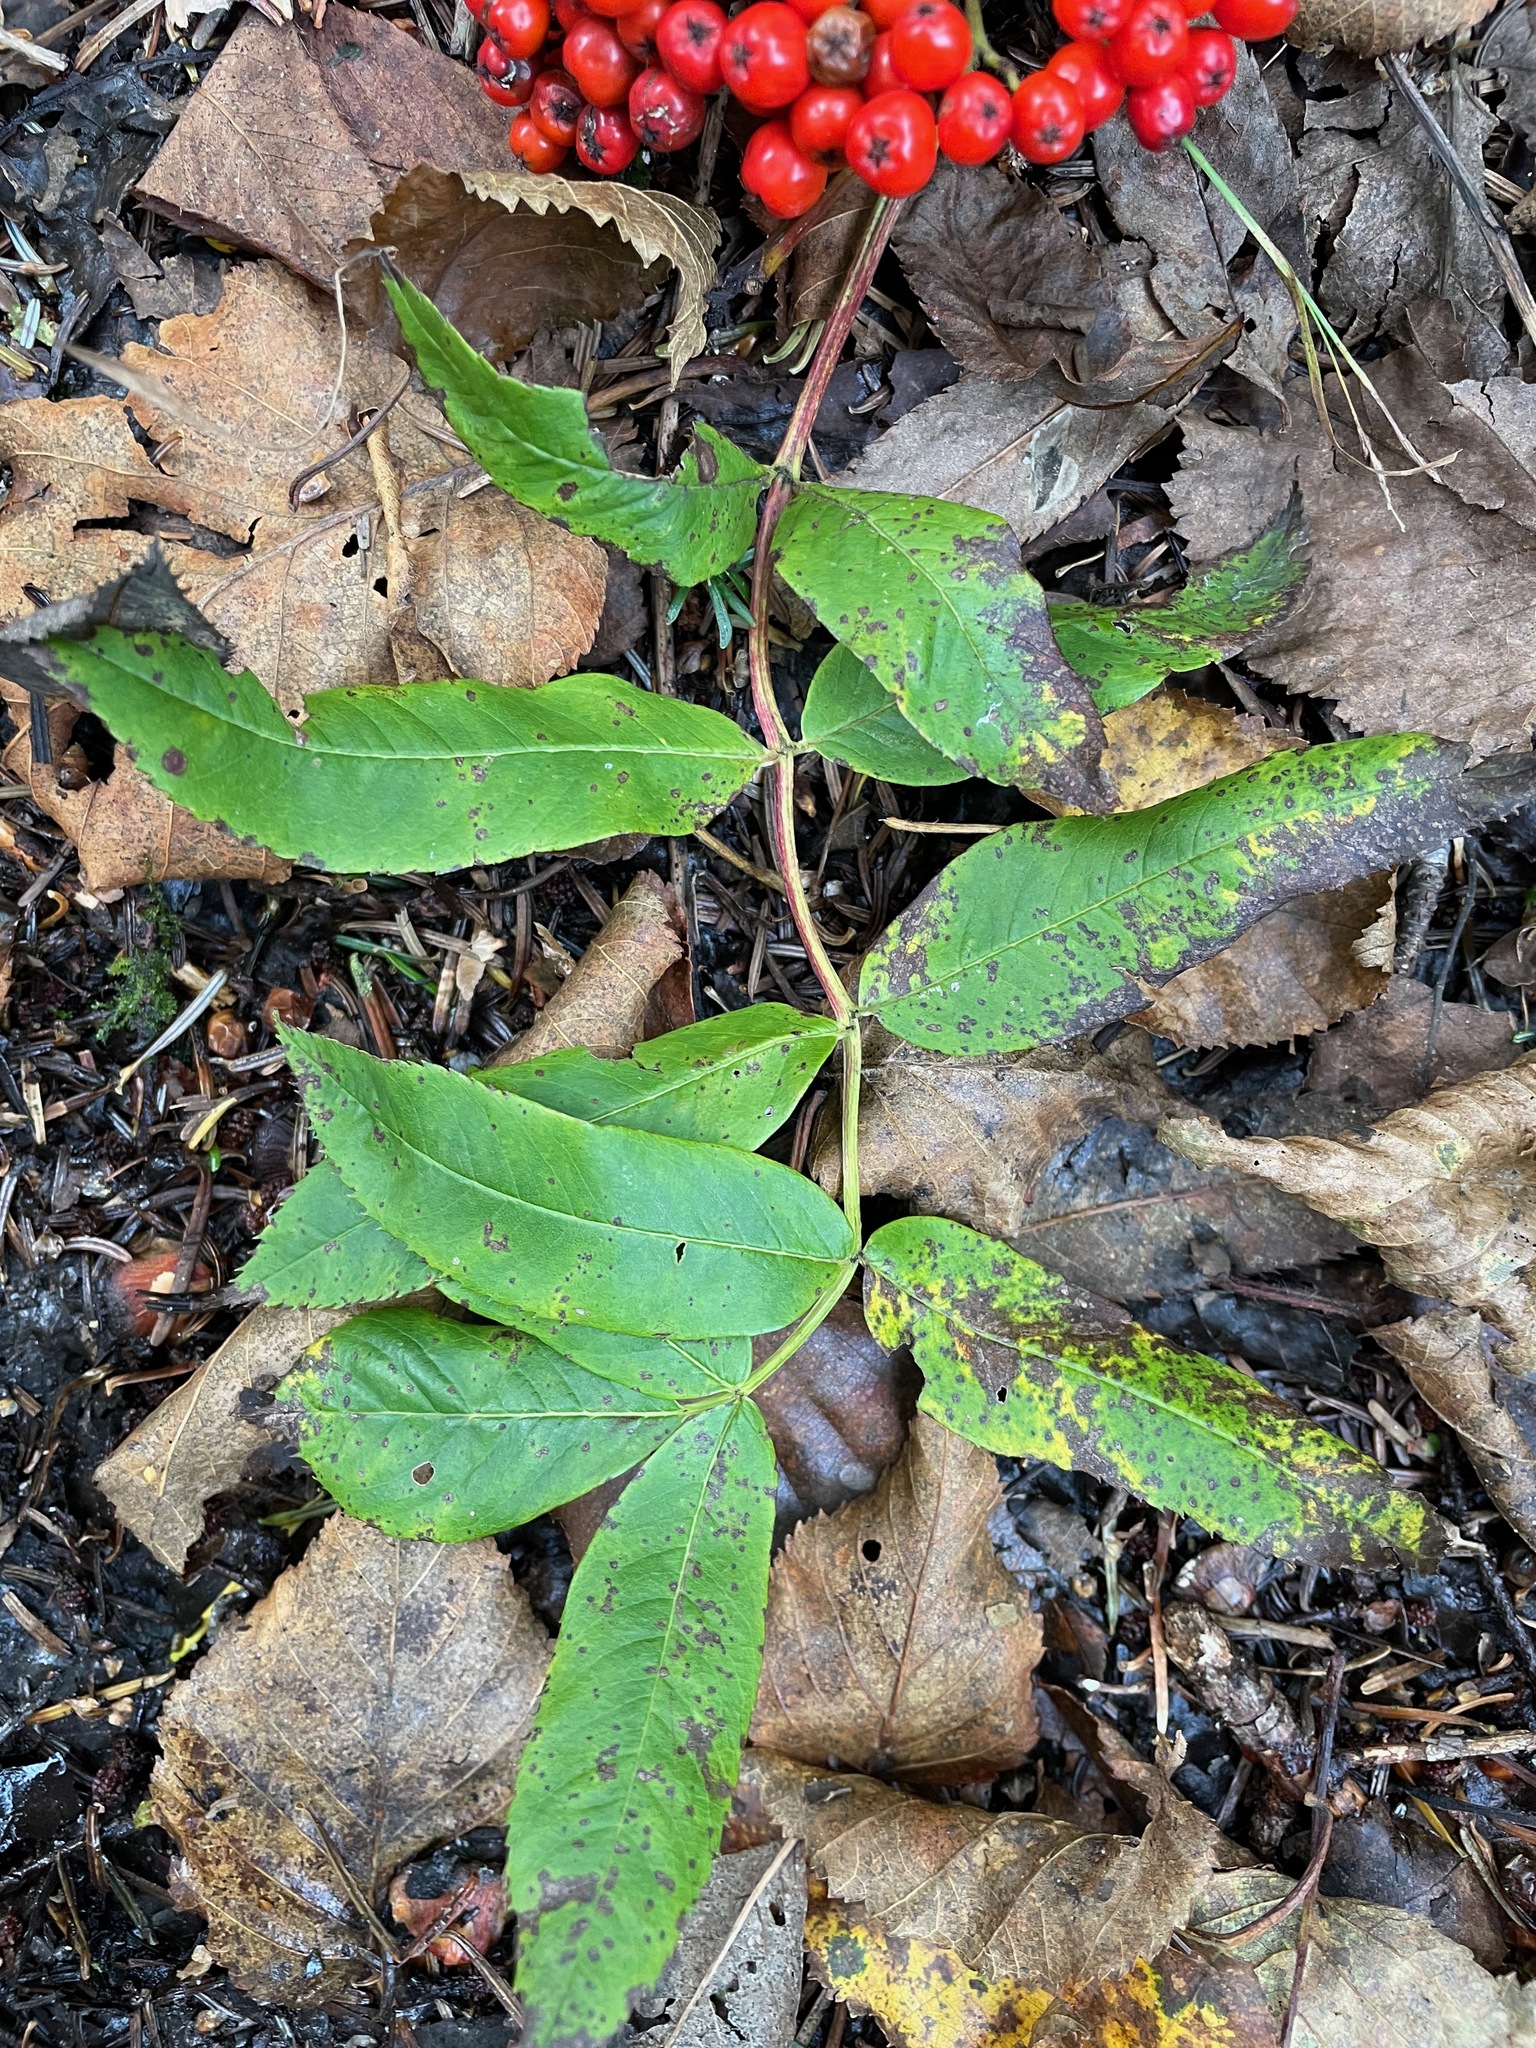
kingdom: Plantae
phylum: Tracheophyta
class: Magnoliopsida
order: Rosales
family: Rosaceae
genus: Sorbus
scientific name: Sorbus americana
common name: American mountain-ash
